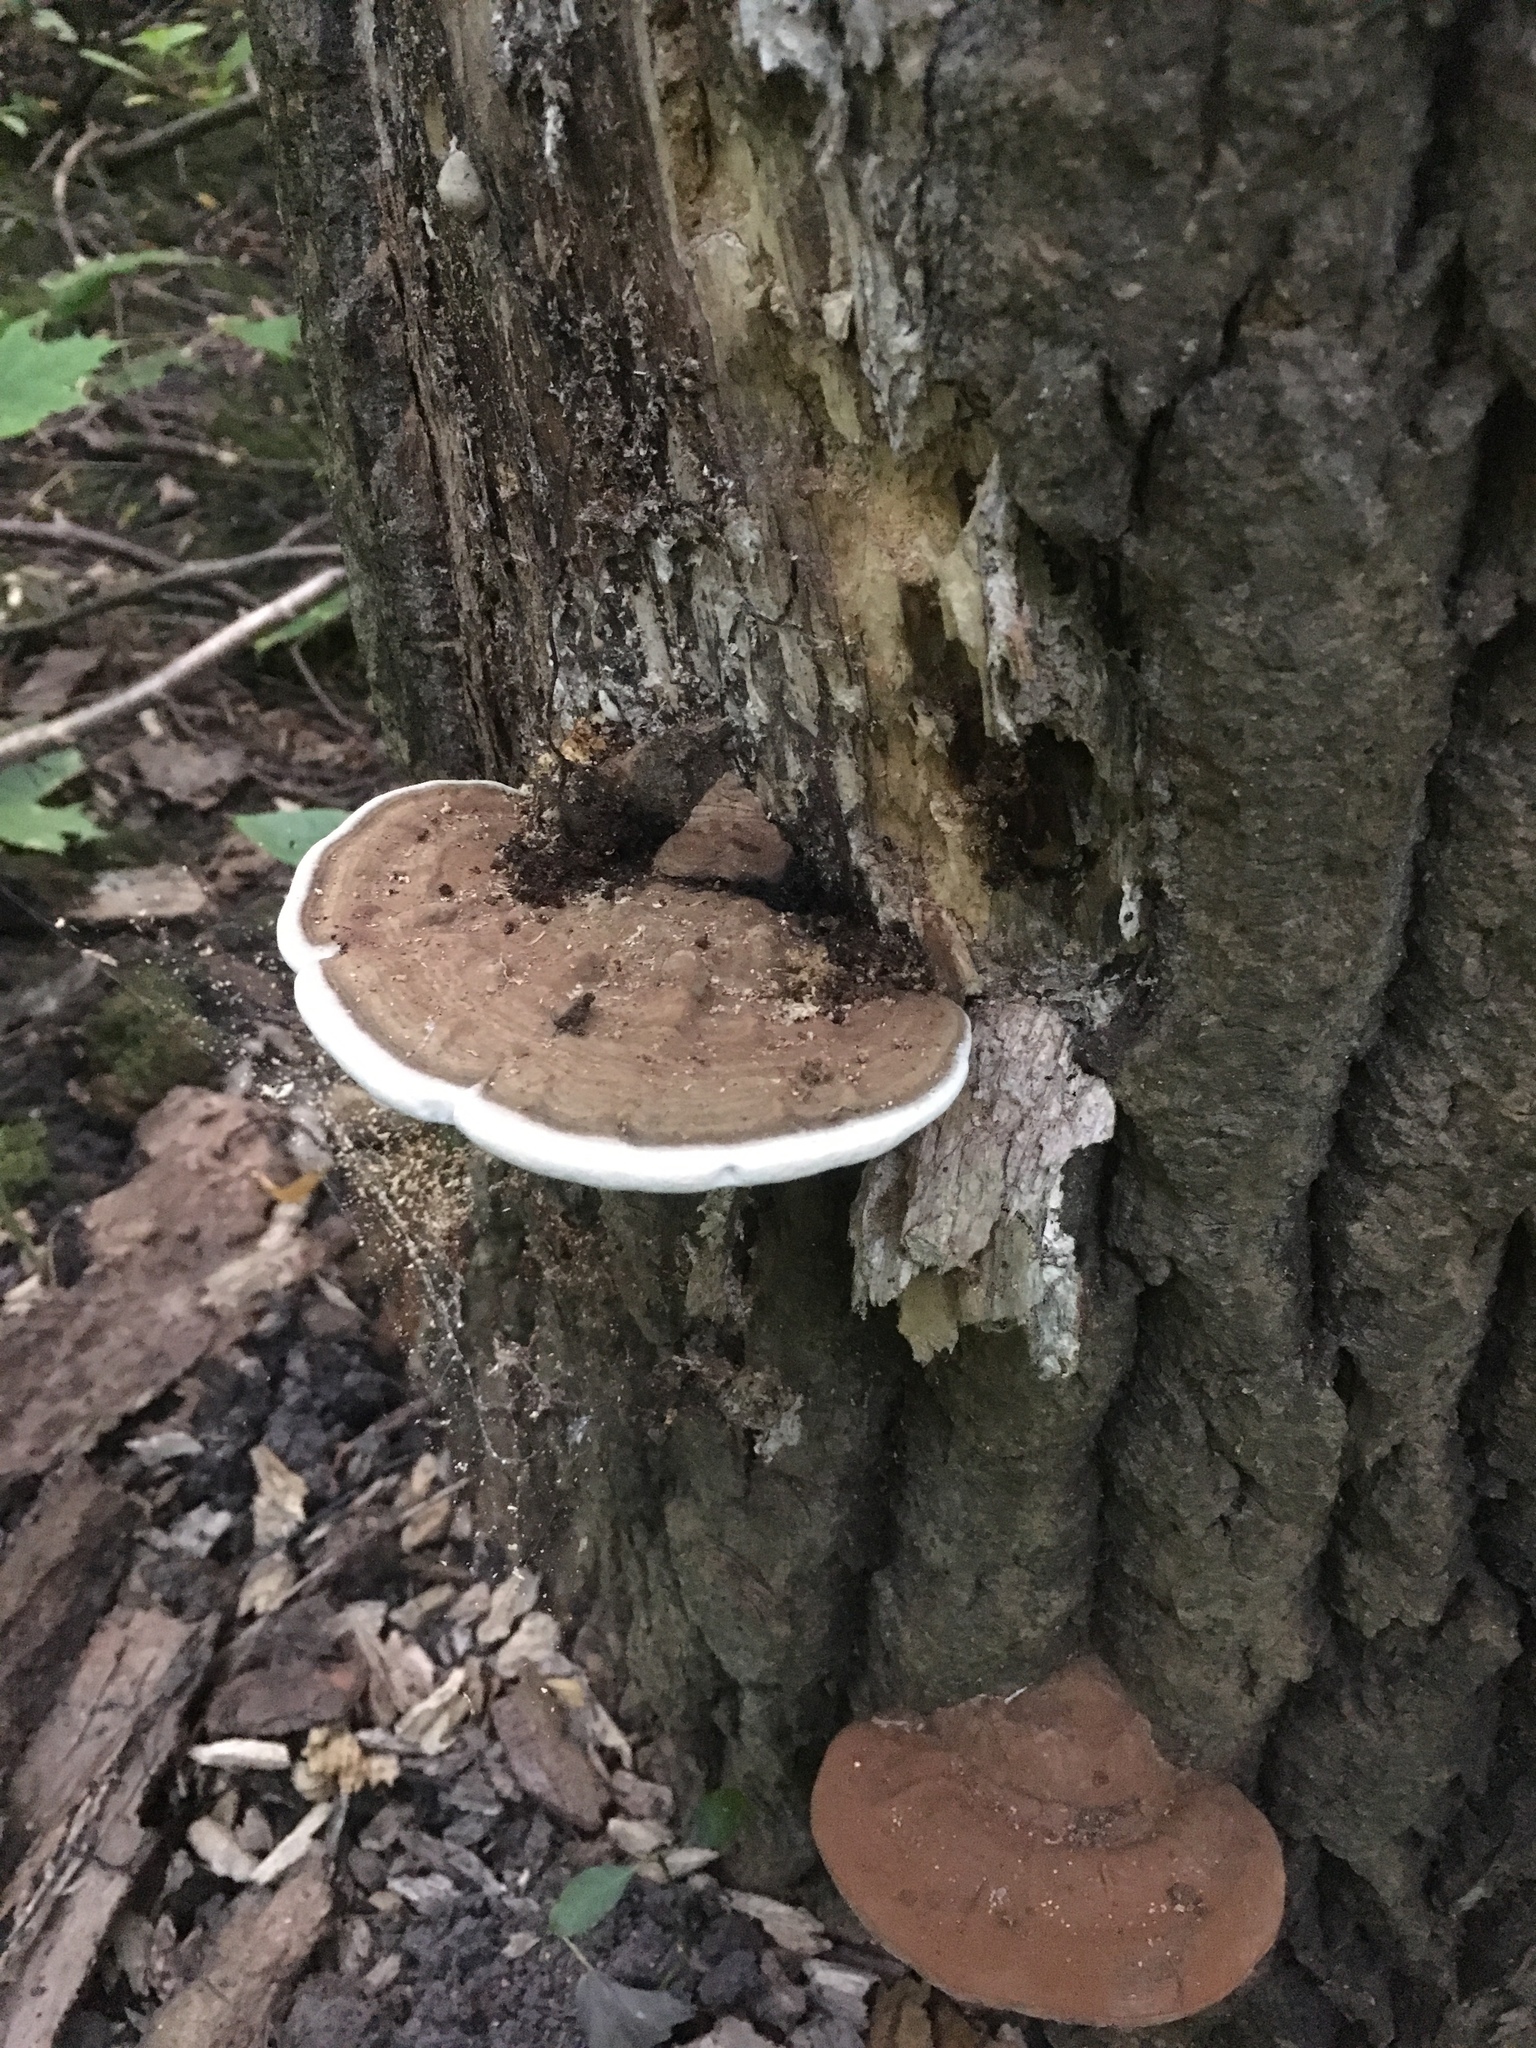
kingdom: Fungi
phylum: Basidiomycota
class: Agaricomycetes
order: Polyporales
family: Polyporaceae
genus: Ganoderma
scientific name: Ganoderma applanatum
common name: Artist's bracket
